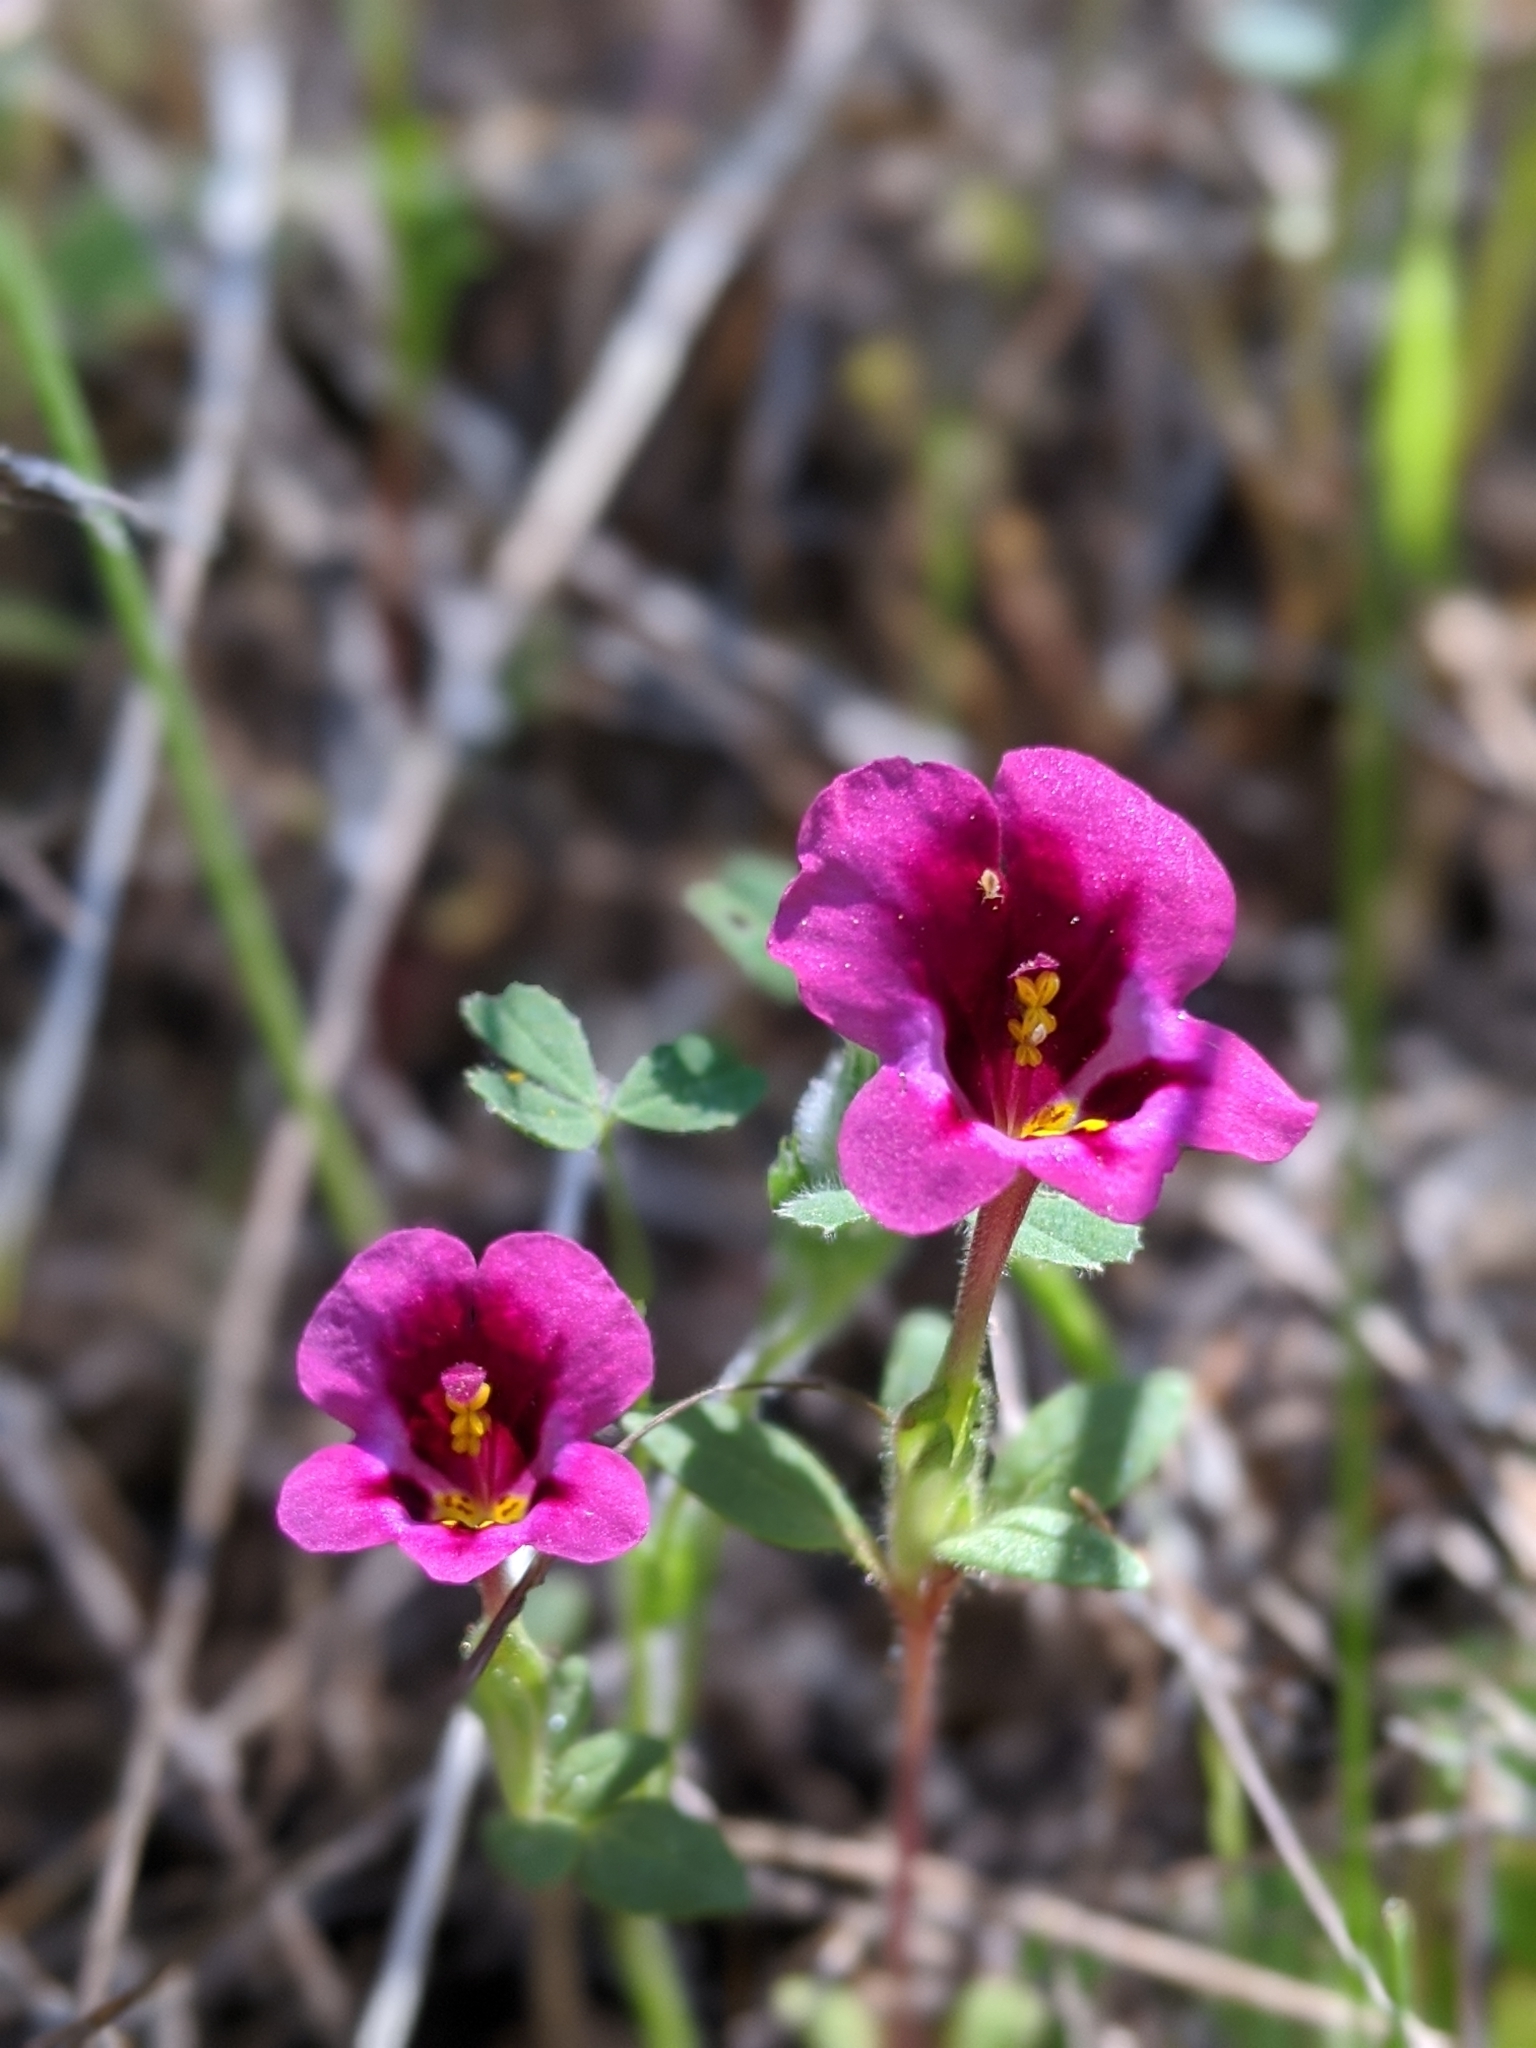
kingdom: Plantae
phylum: Tracheophyta
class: Magnoliopsida
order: Lamiales
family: Phrymaceae
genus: Diplacus
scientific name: Diplacus kelloggii
